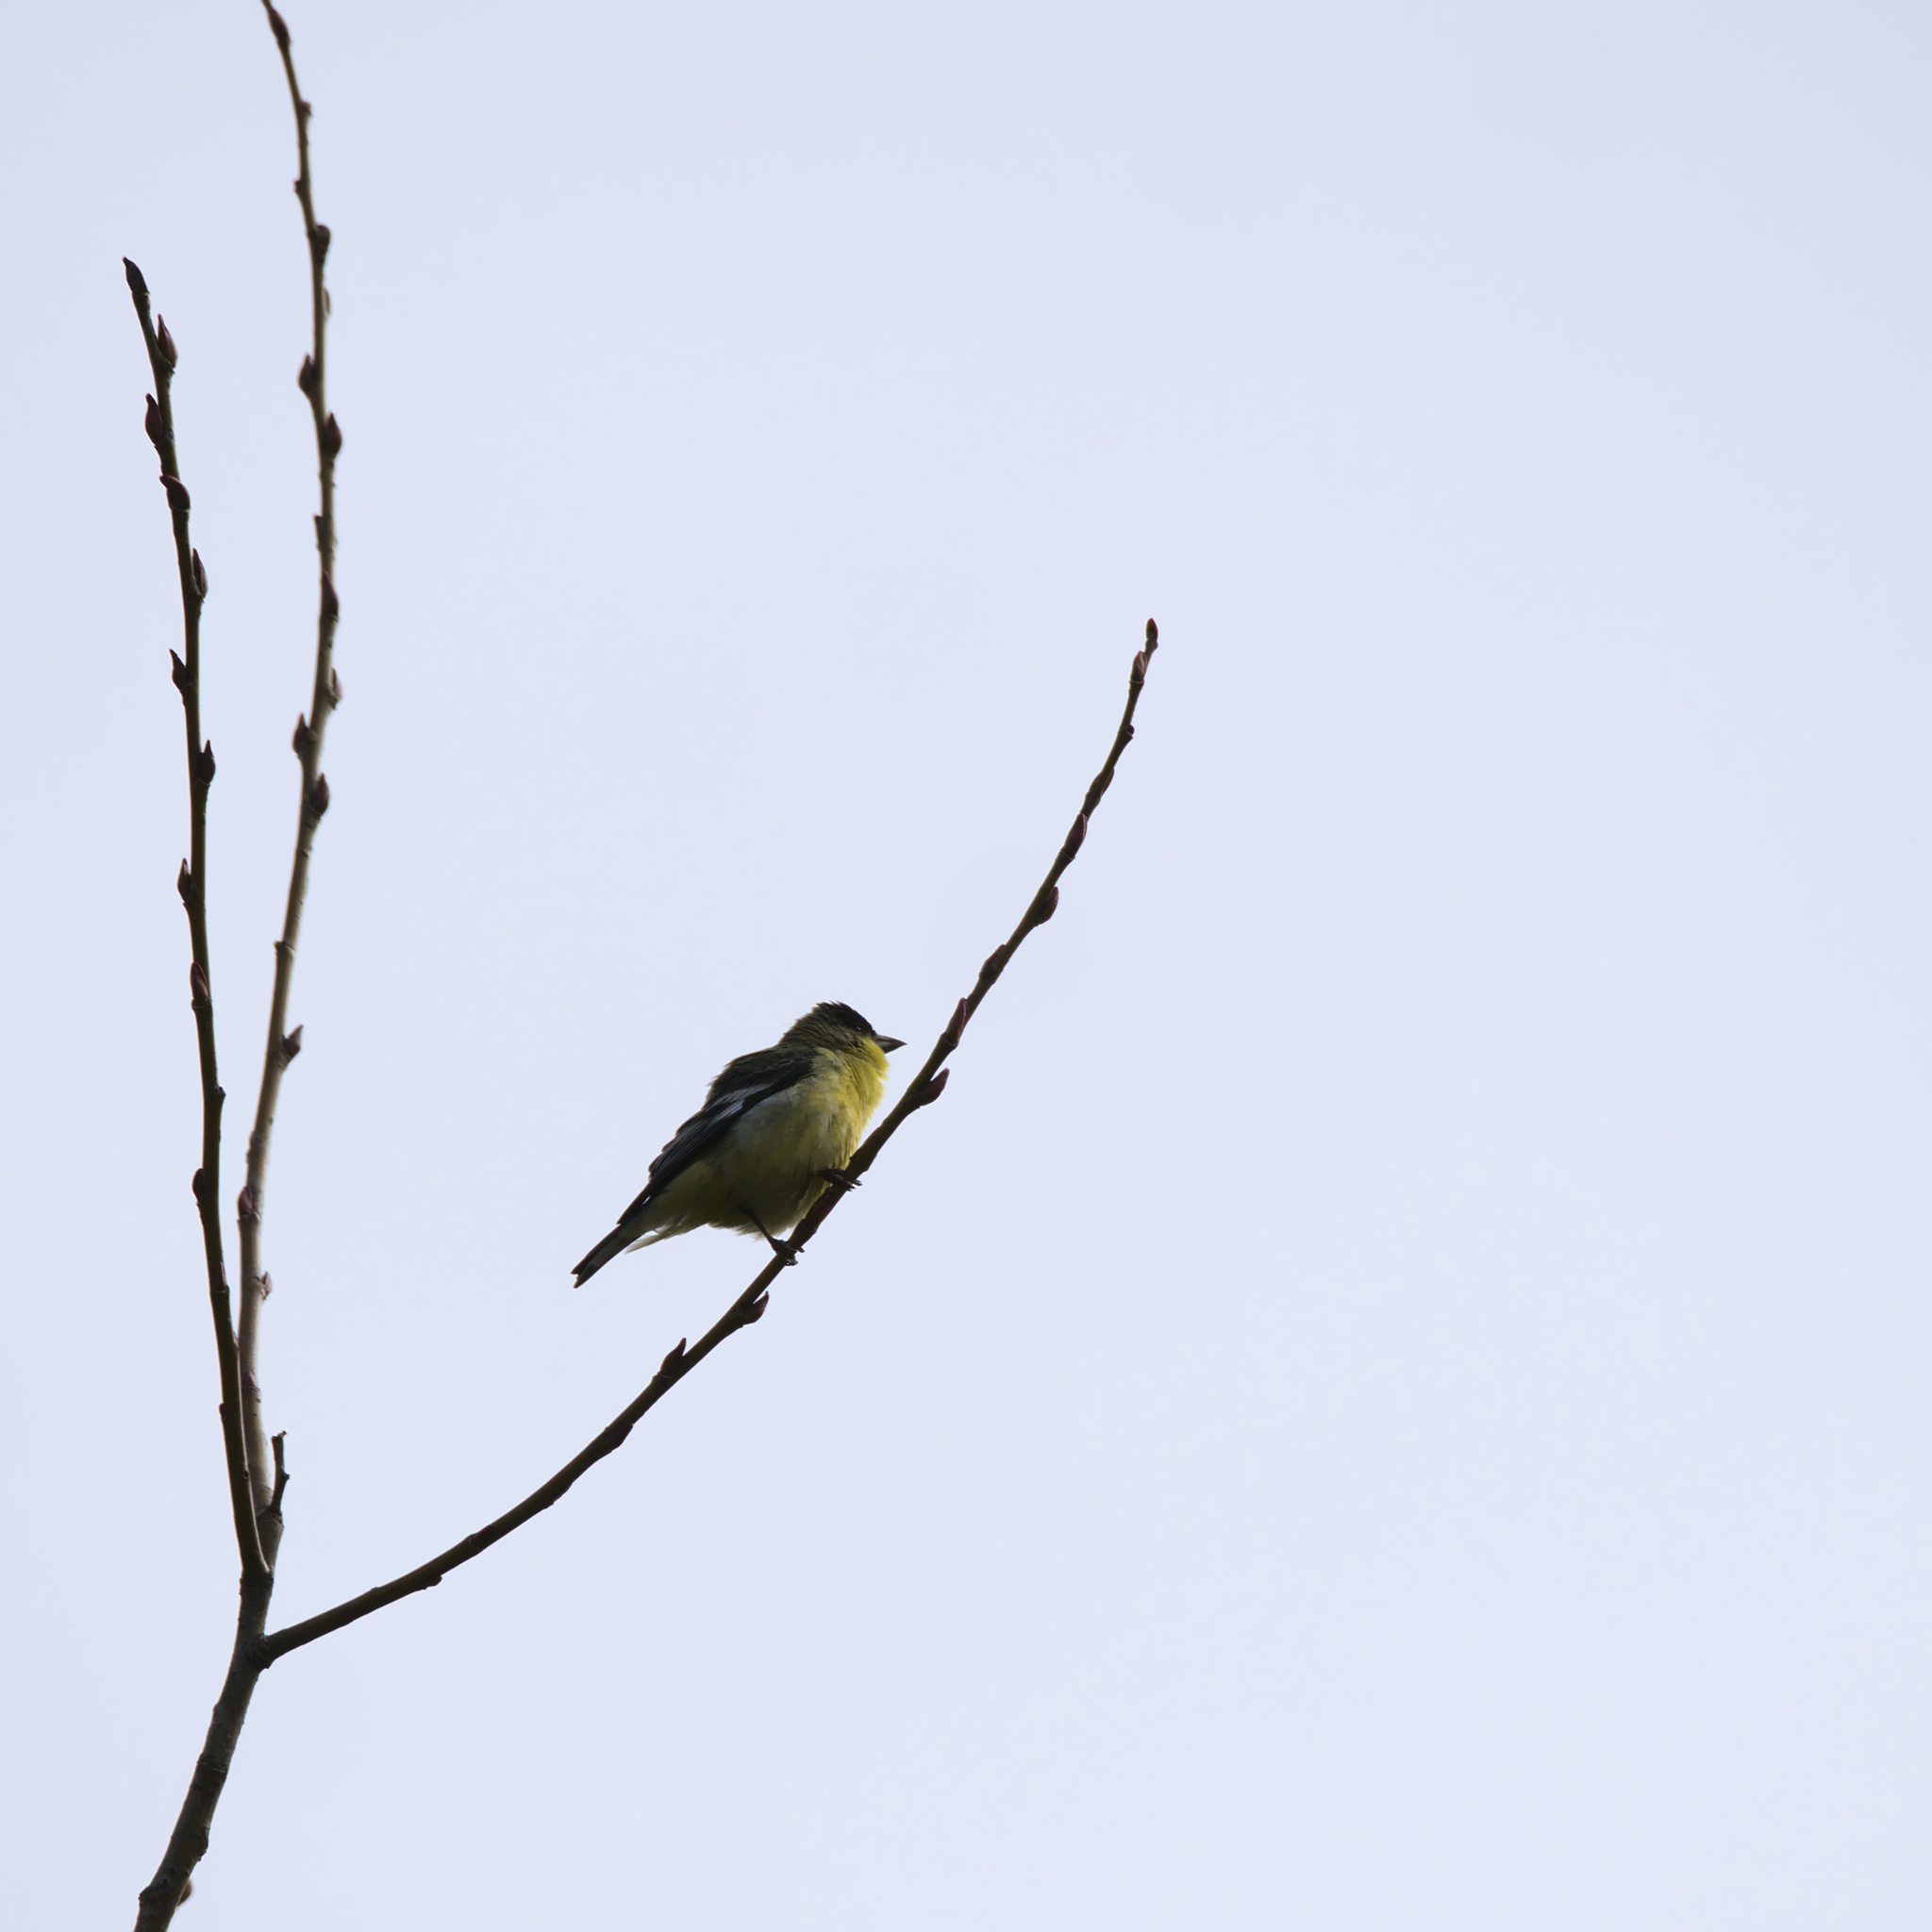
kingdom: Animalia
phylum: Chordata
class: Aves
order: Passeriformes
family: Fringillidae
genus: Spinus
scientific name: Spinus psaltria
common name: Lesser goldfinch
